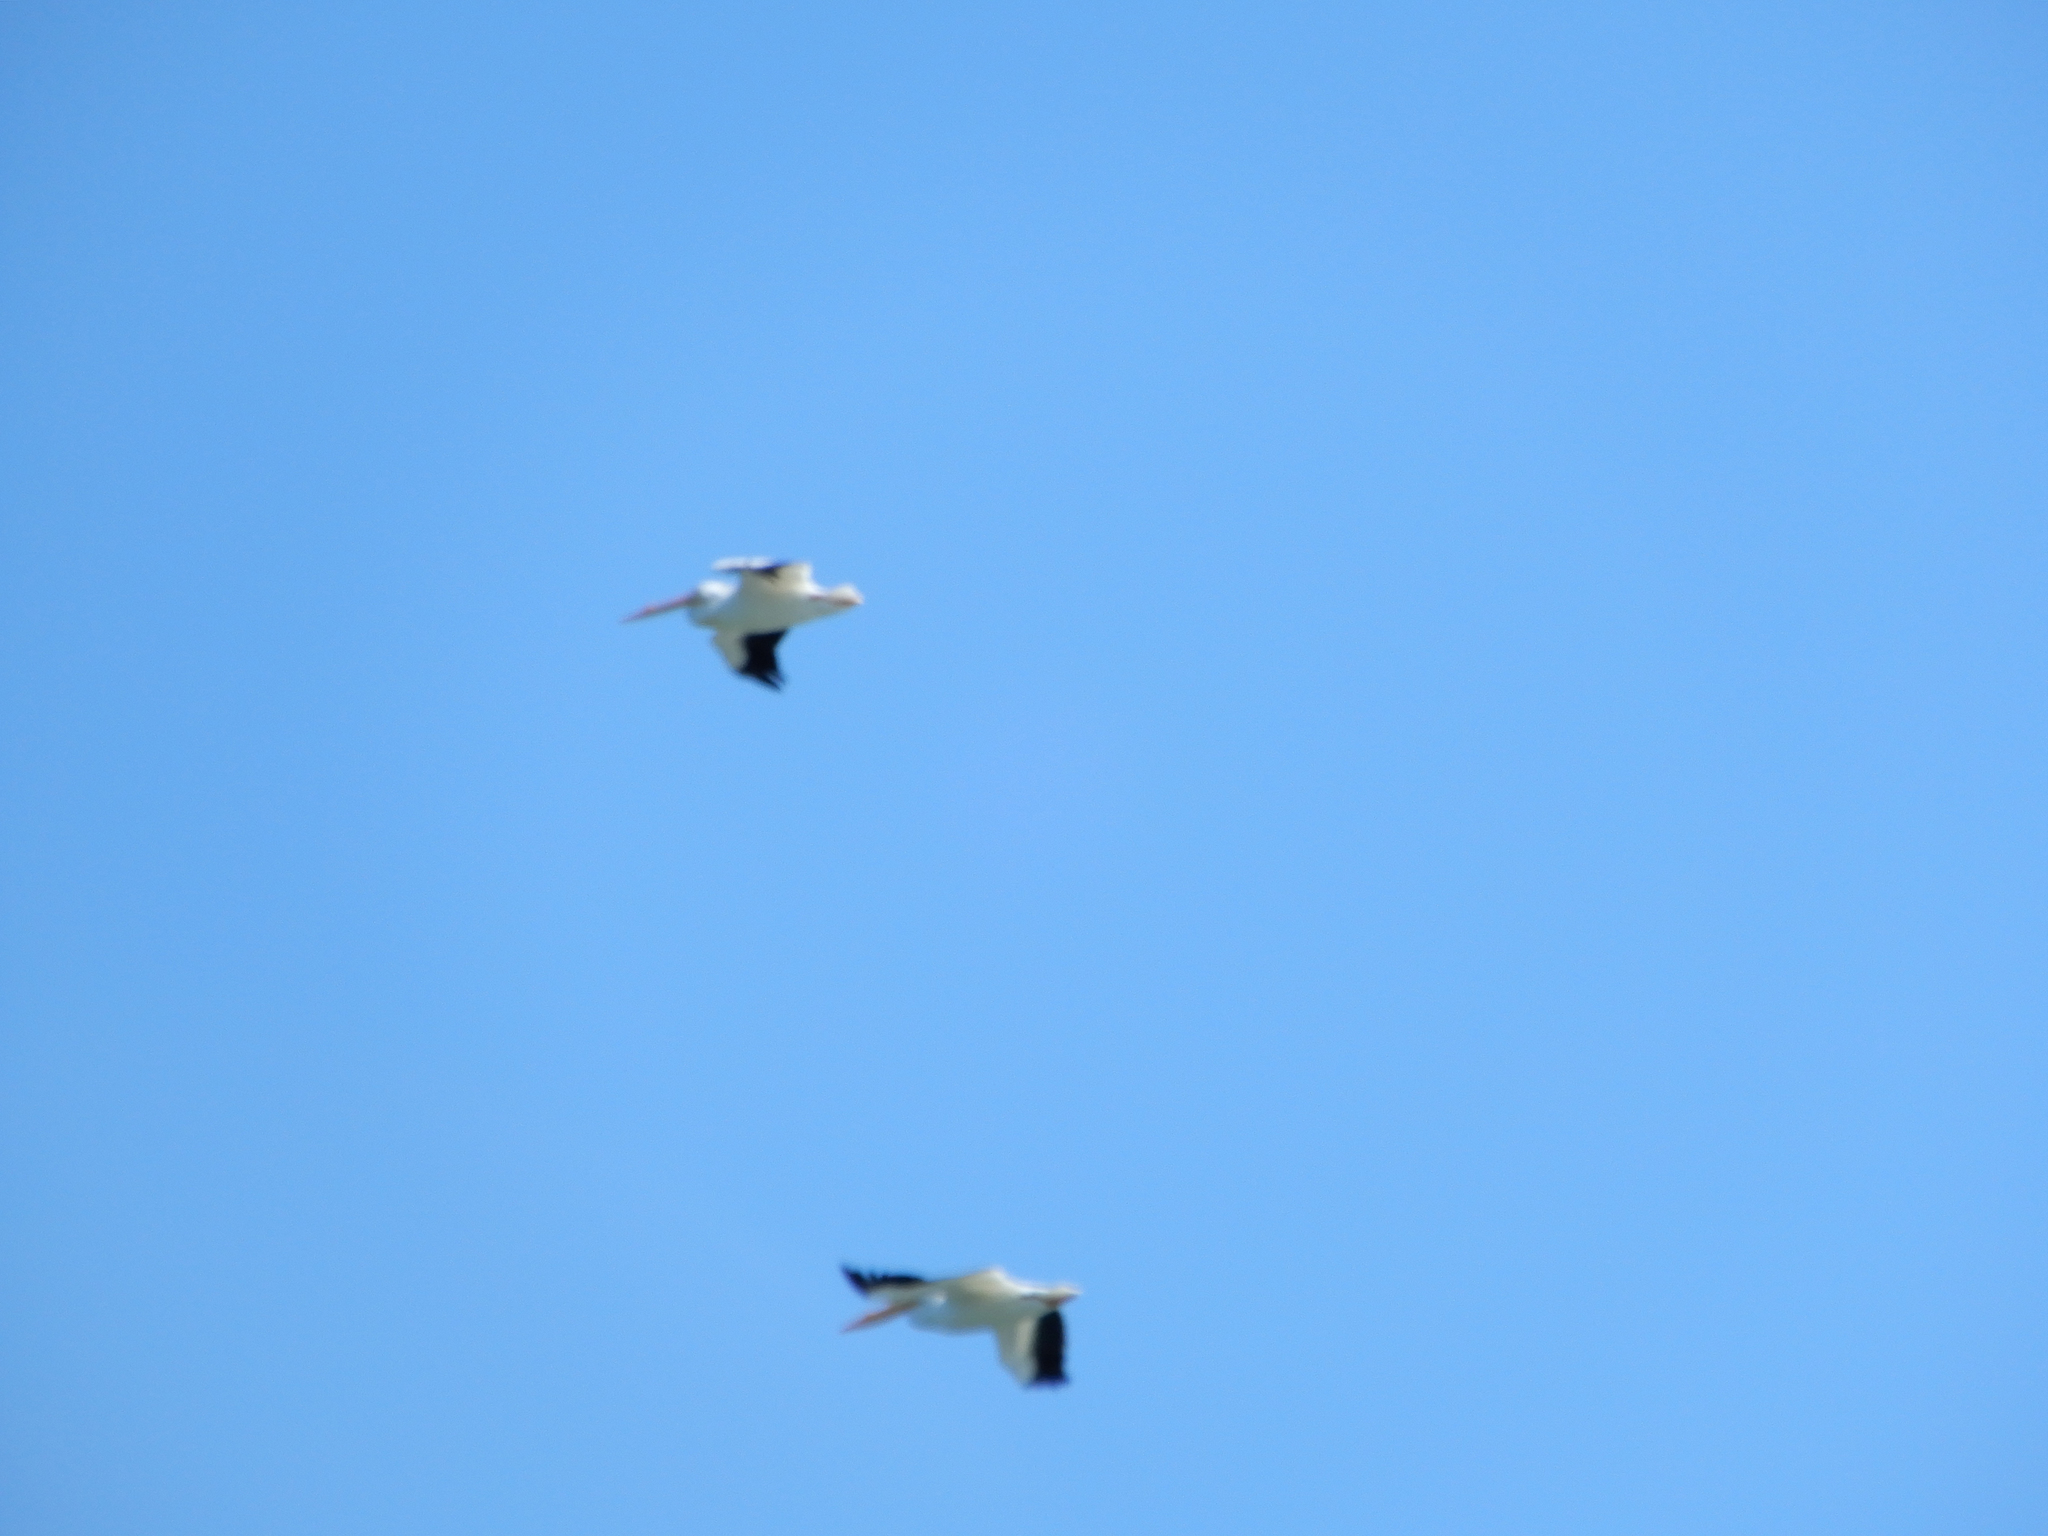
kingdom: Animalia
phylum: Chordata
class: Aves
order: Pelecaniformes
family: Pelecanidae
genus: Pelecanus
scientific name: Pelecanus erythrorhynchos
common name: American white pelican
